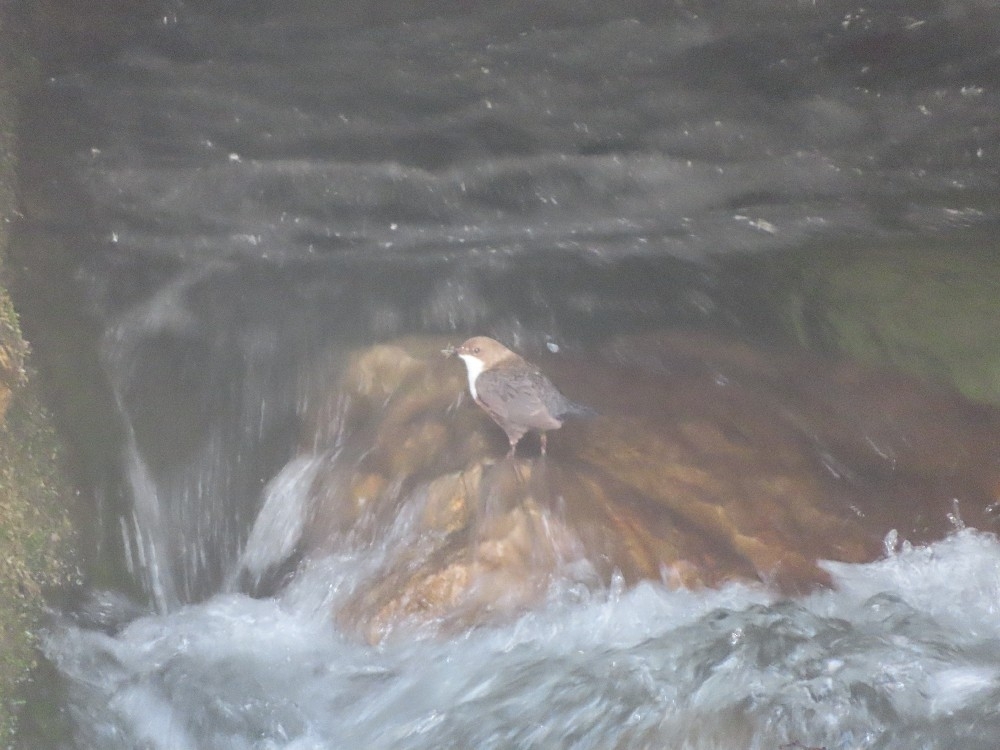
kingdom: Animalia
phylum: Chordata
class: Aves
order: Passeriformes
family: Cinclidae
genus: Cinclus
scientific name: Cinclus cinclus
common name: White-throated dipper
